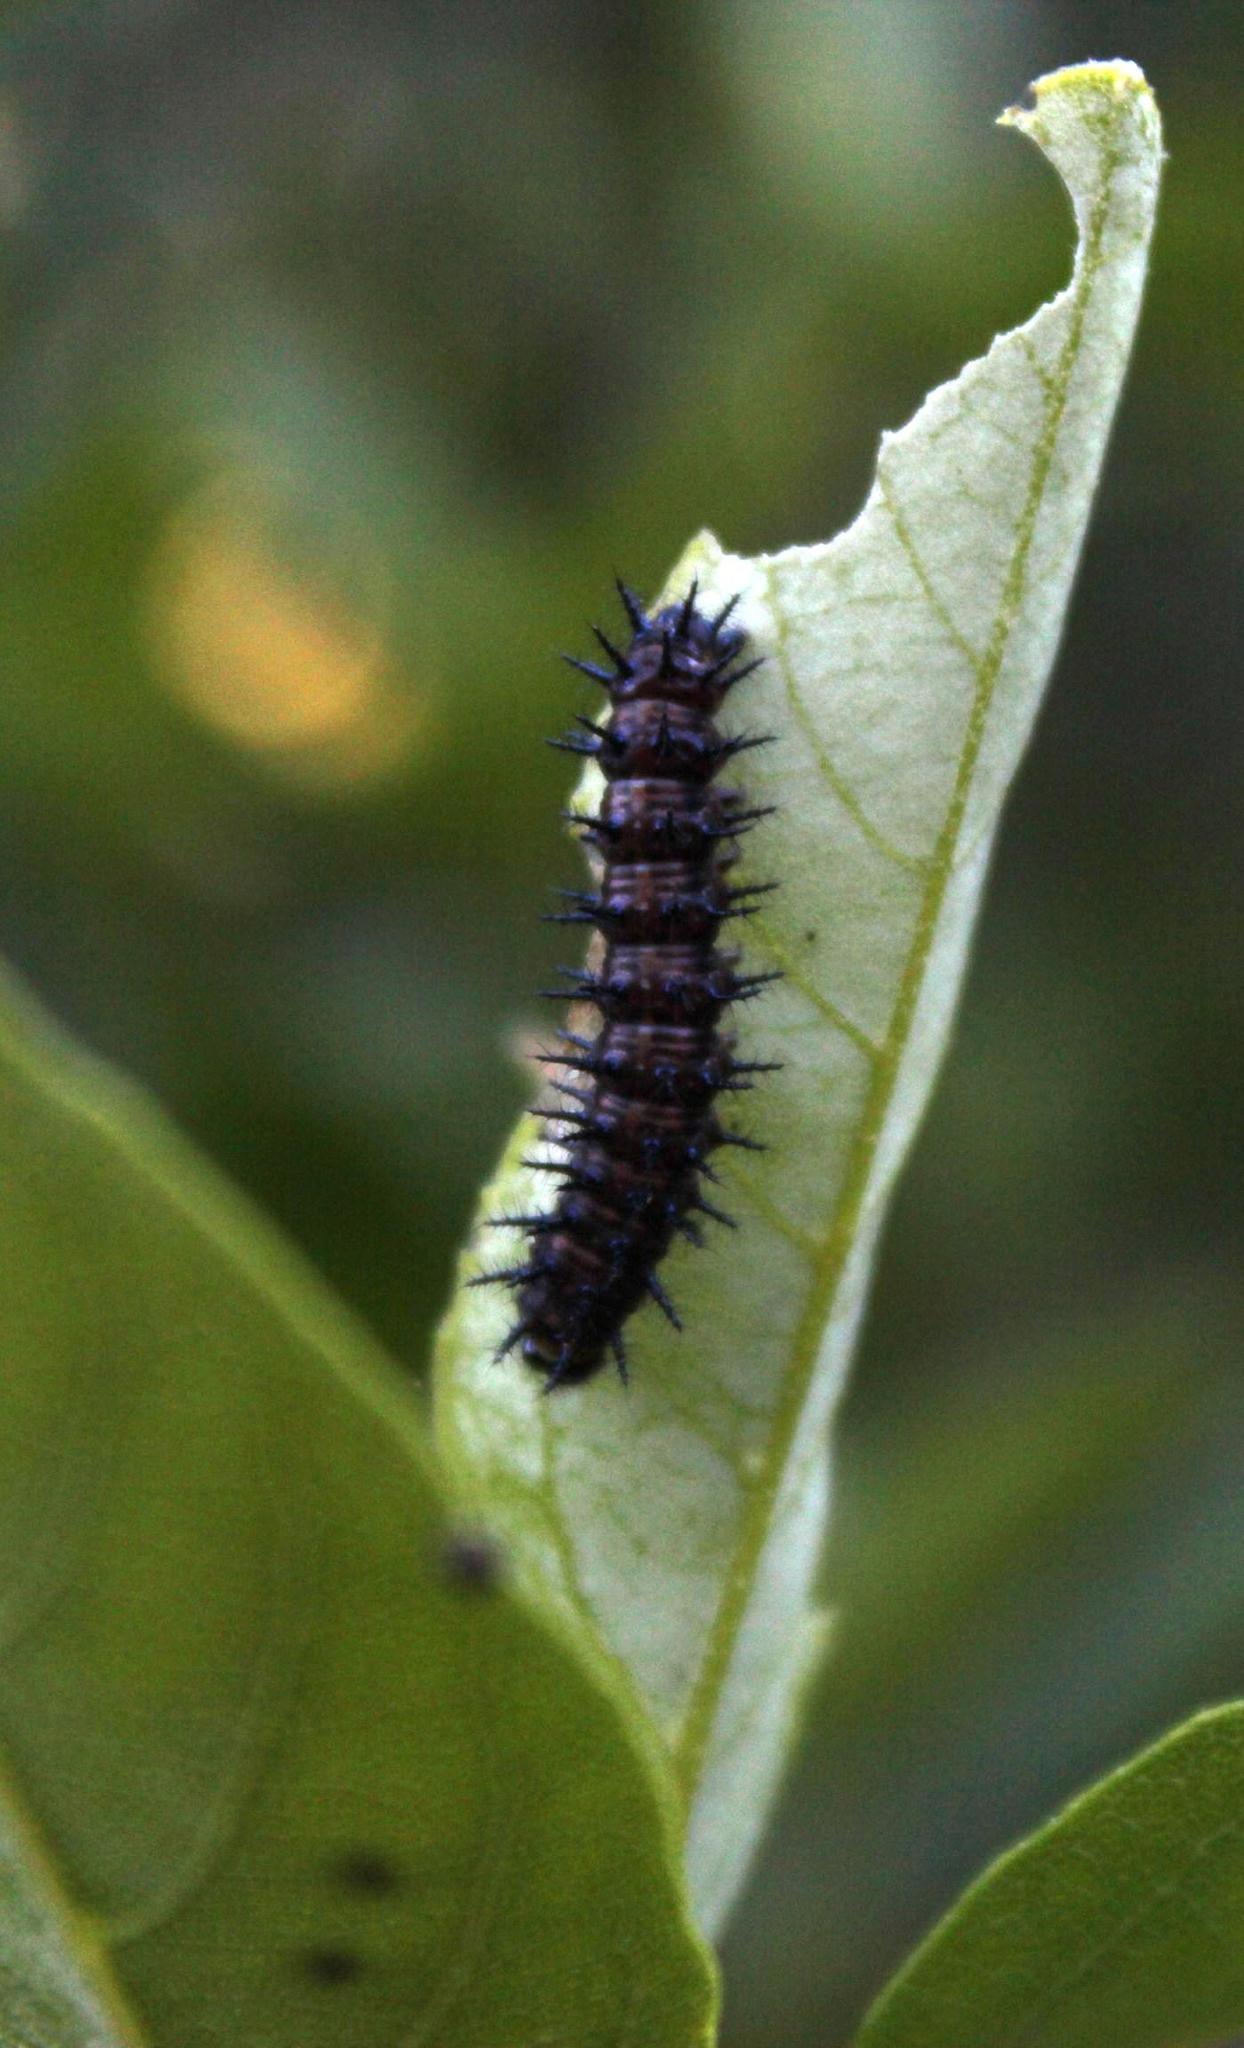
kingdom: Animalia
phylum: Arthropoda
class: Insecta
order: Lepidoptera
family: Nymphalidae
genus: Acraea
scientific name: Acraea horta
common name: Garden acraea
